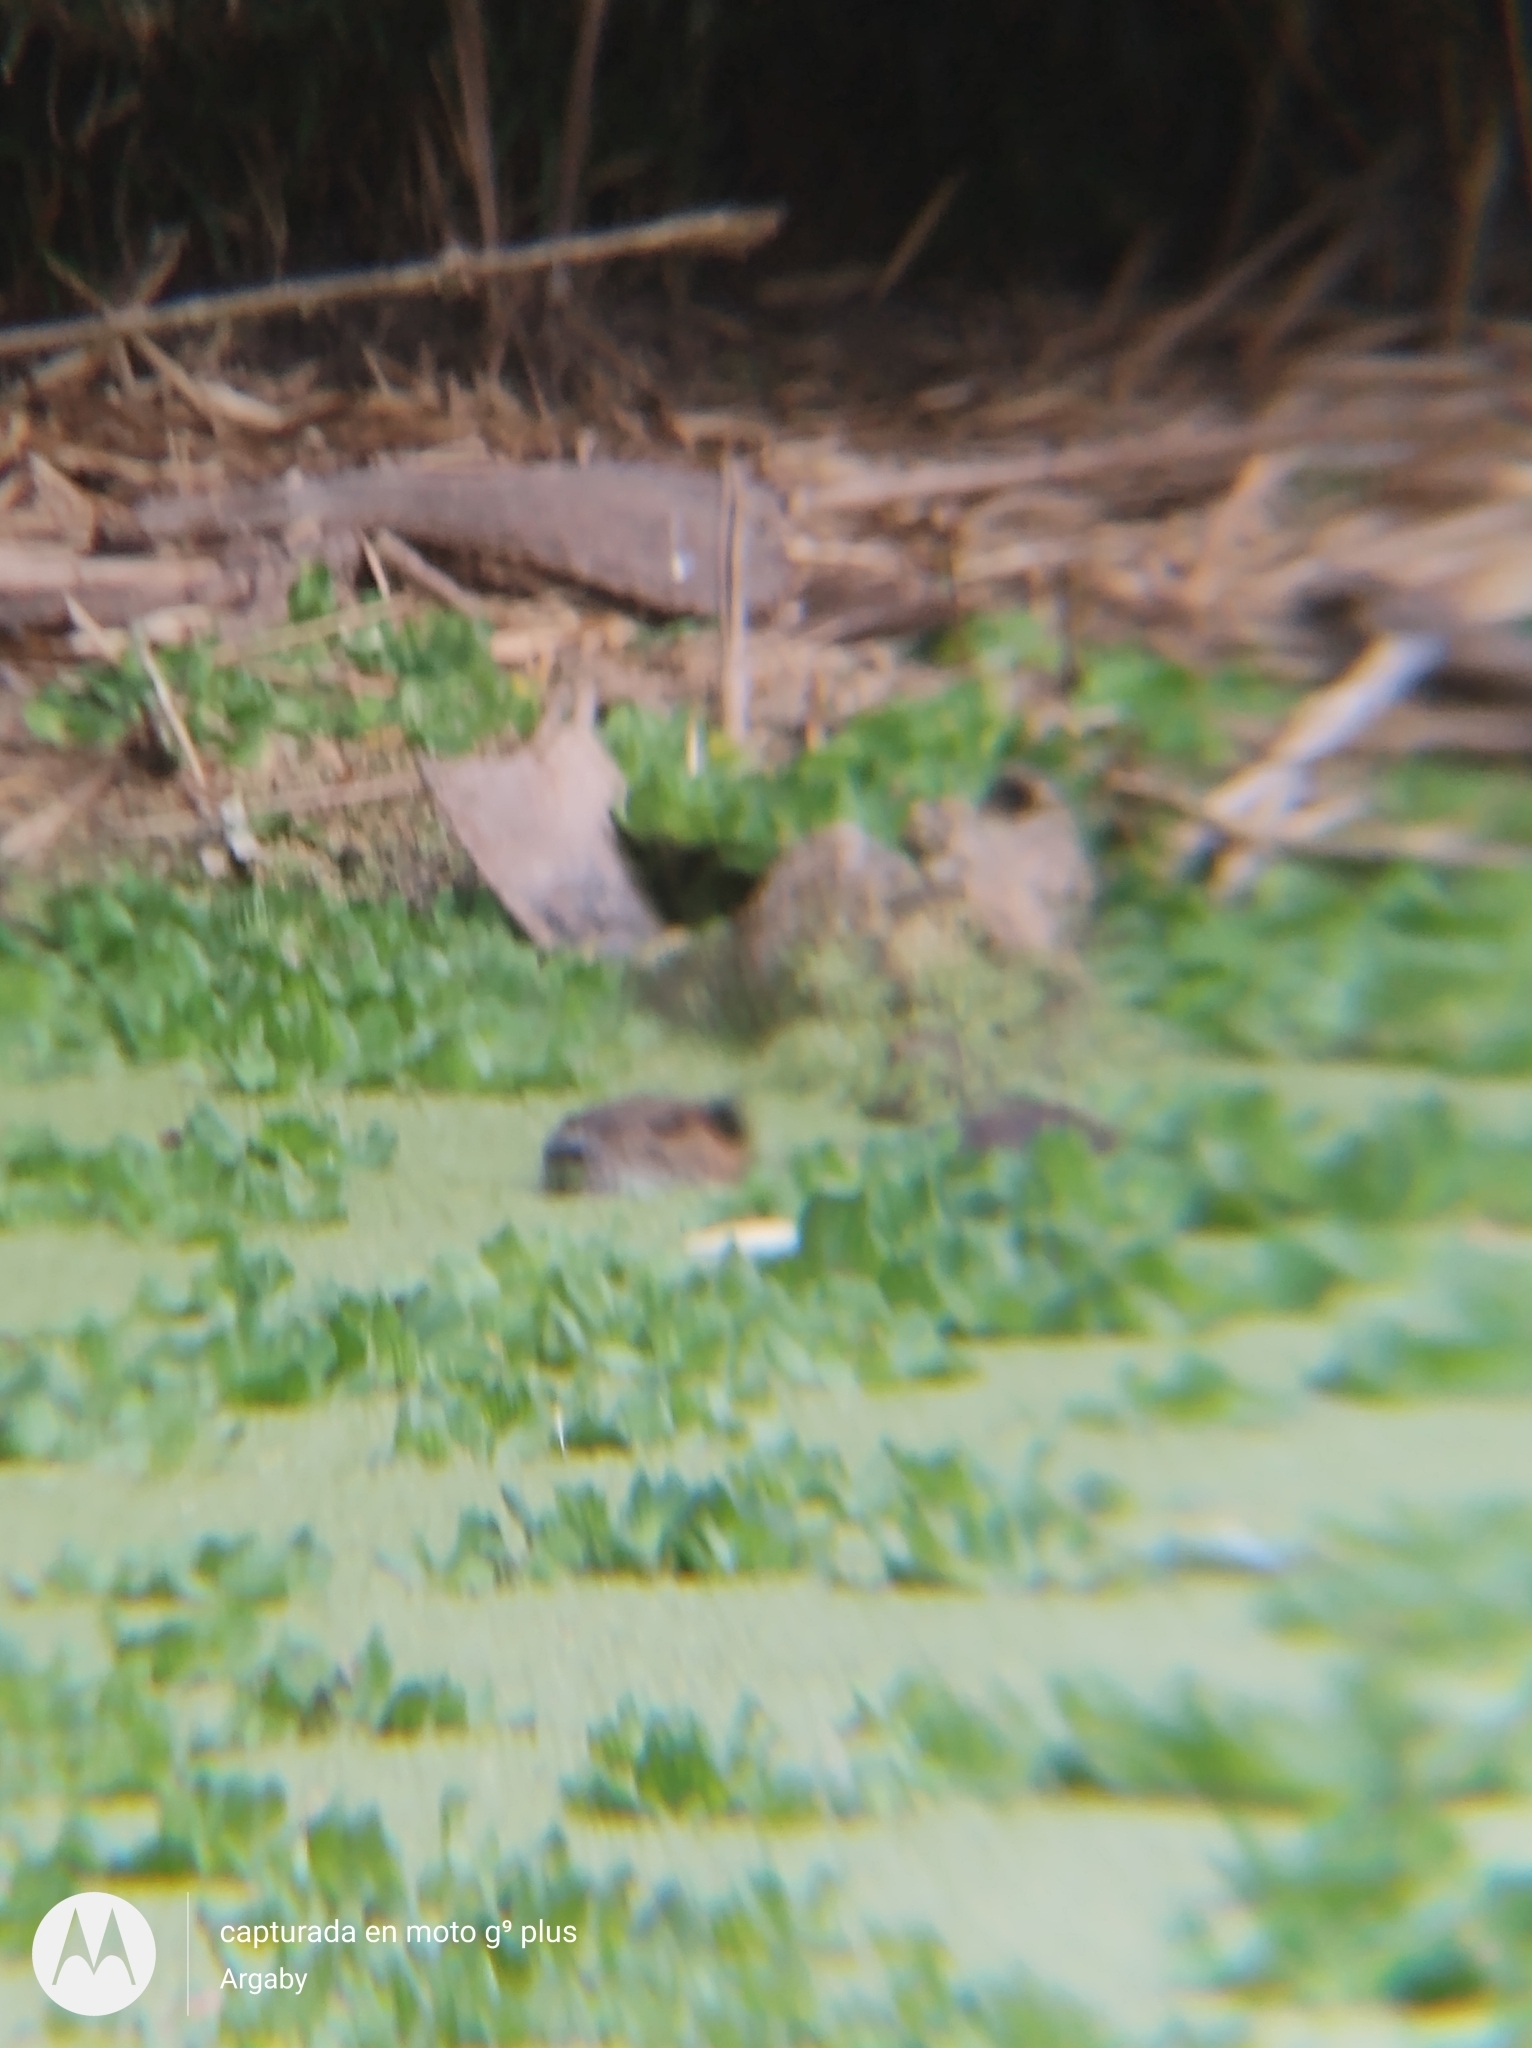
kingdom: Animalia
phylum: Chordata
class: Mammalia
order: Rodentia
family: Myocastoridae
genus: Myocastor
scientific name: Myocastor coypus
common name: Coypu
